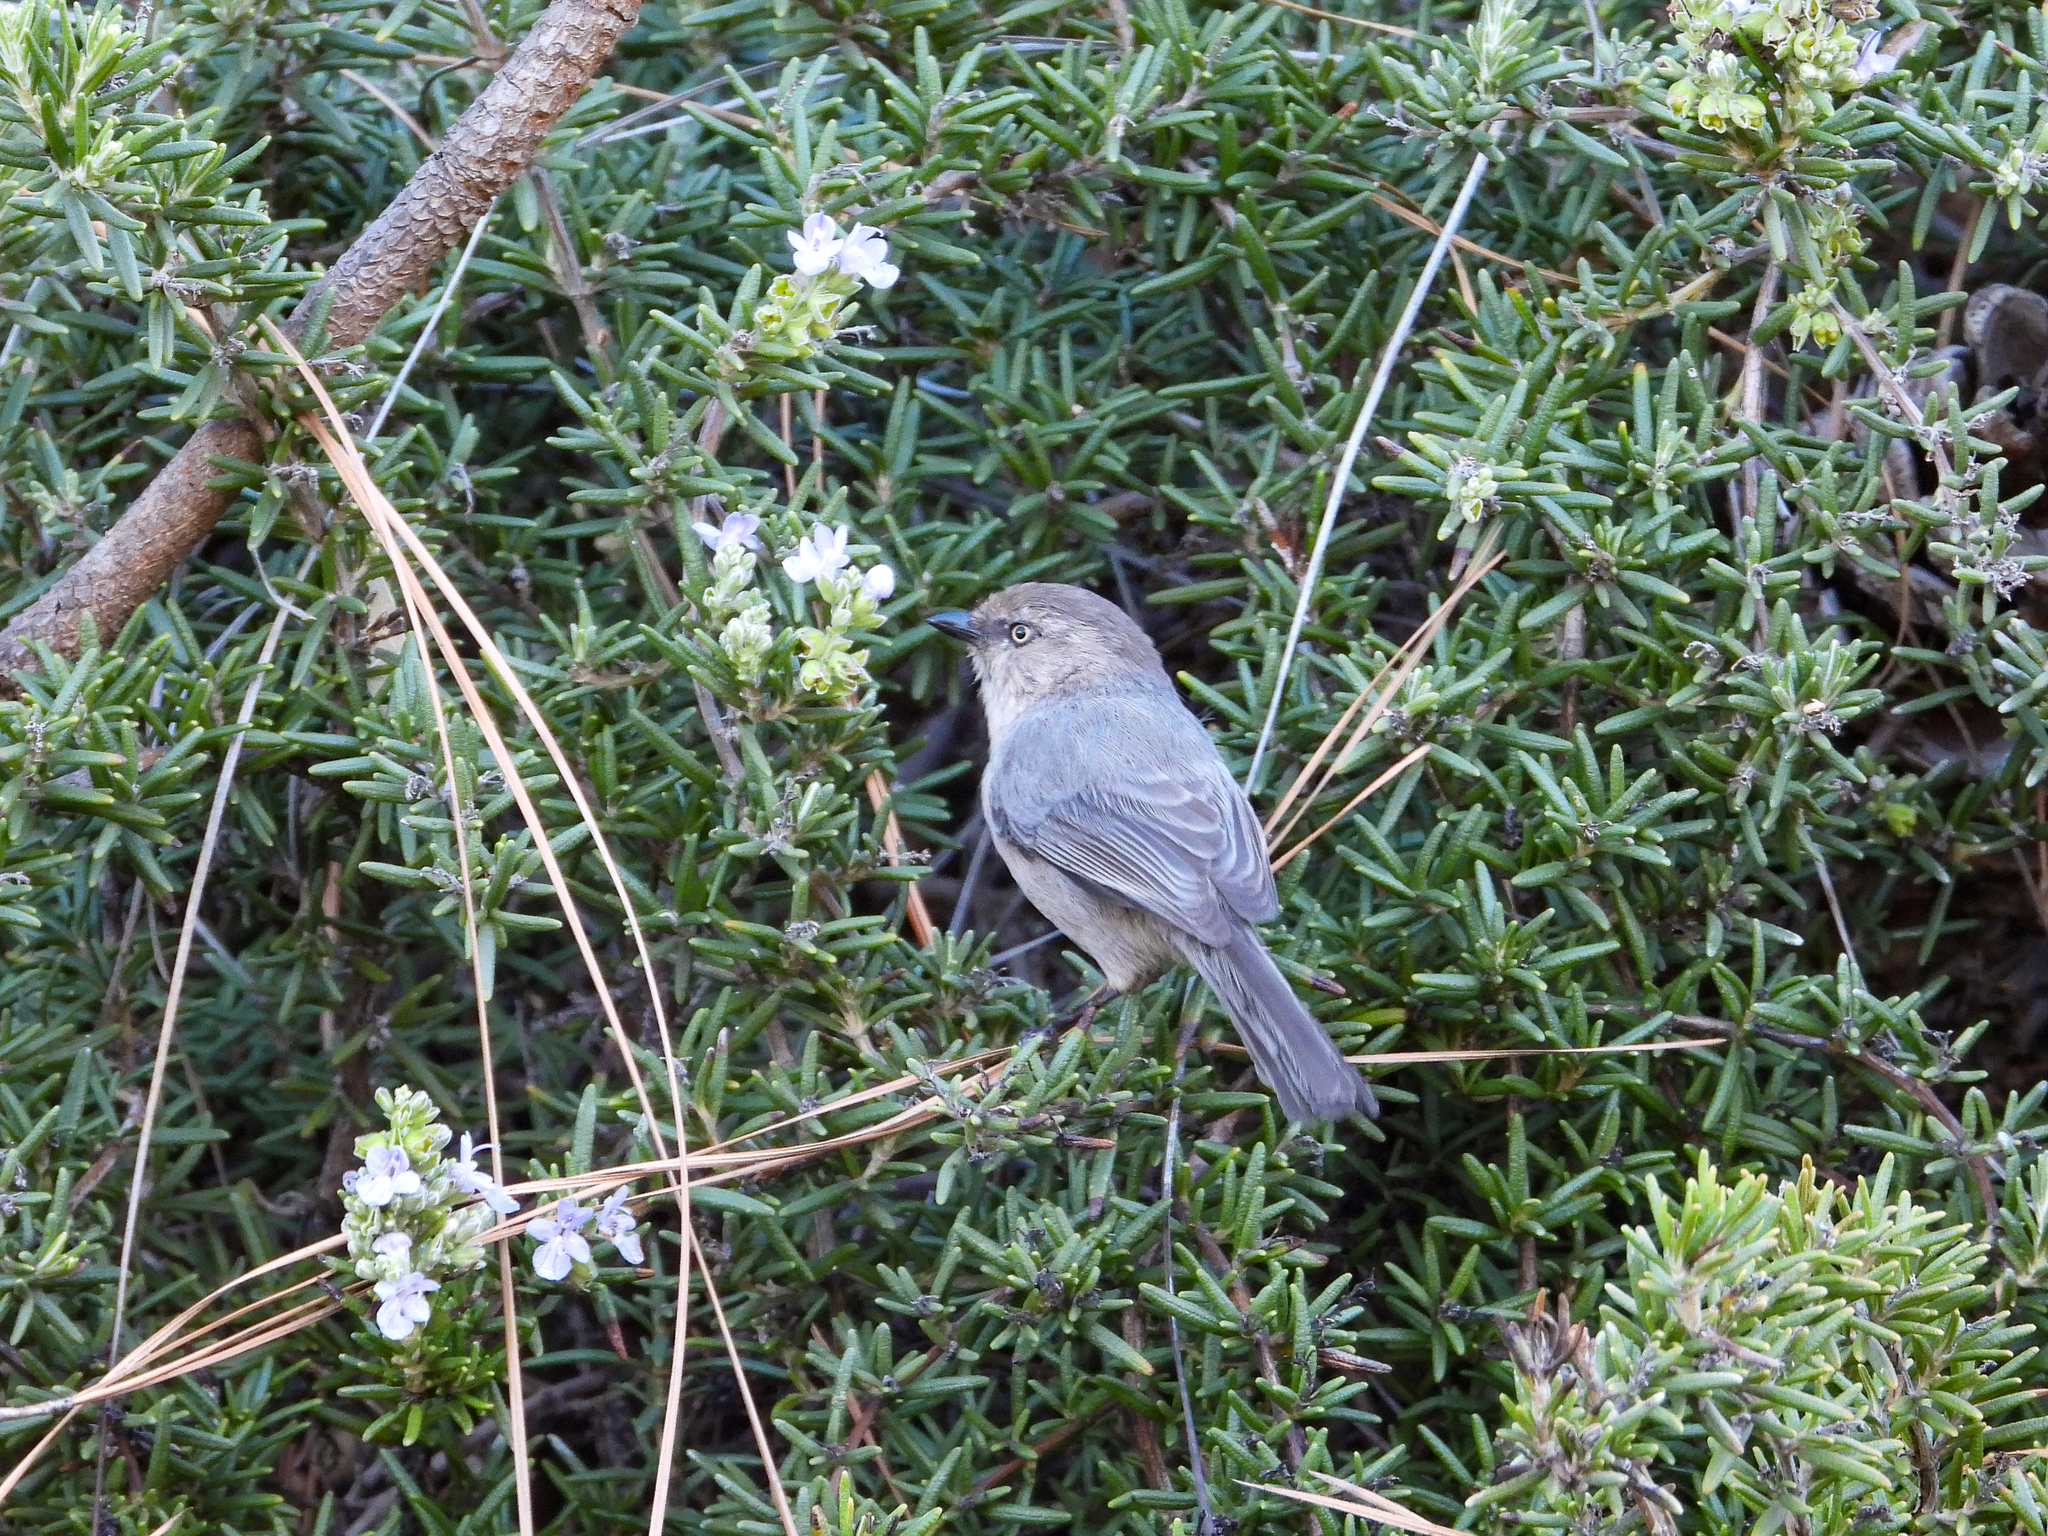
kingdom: Animalia
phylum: Chordata
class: Aves
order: Passeriformes
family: Aegithalidae
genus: Psaltriparus
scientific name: Psaltriparus minimus
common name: American bushtit
